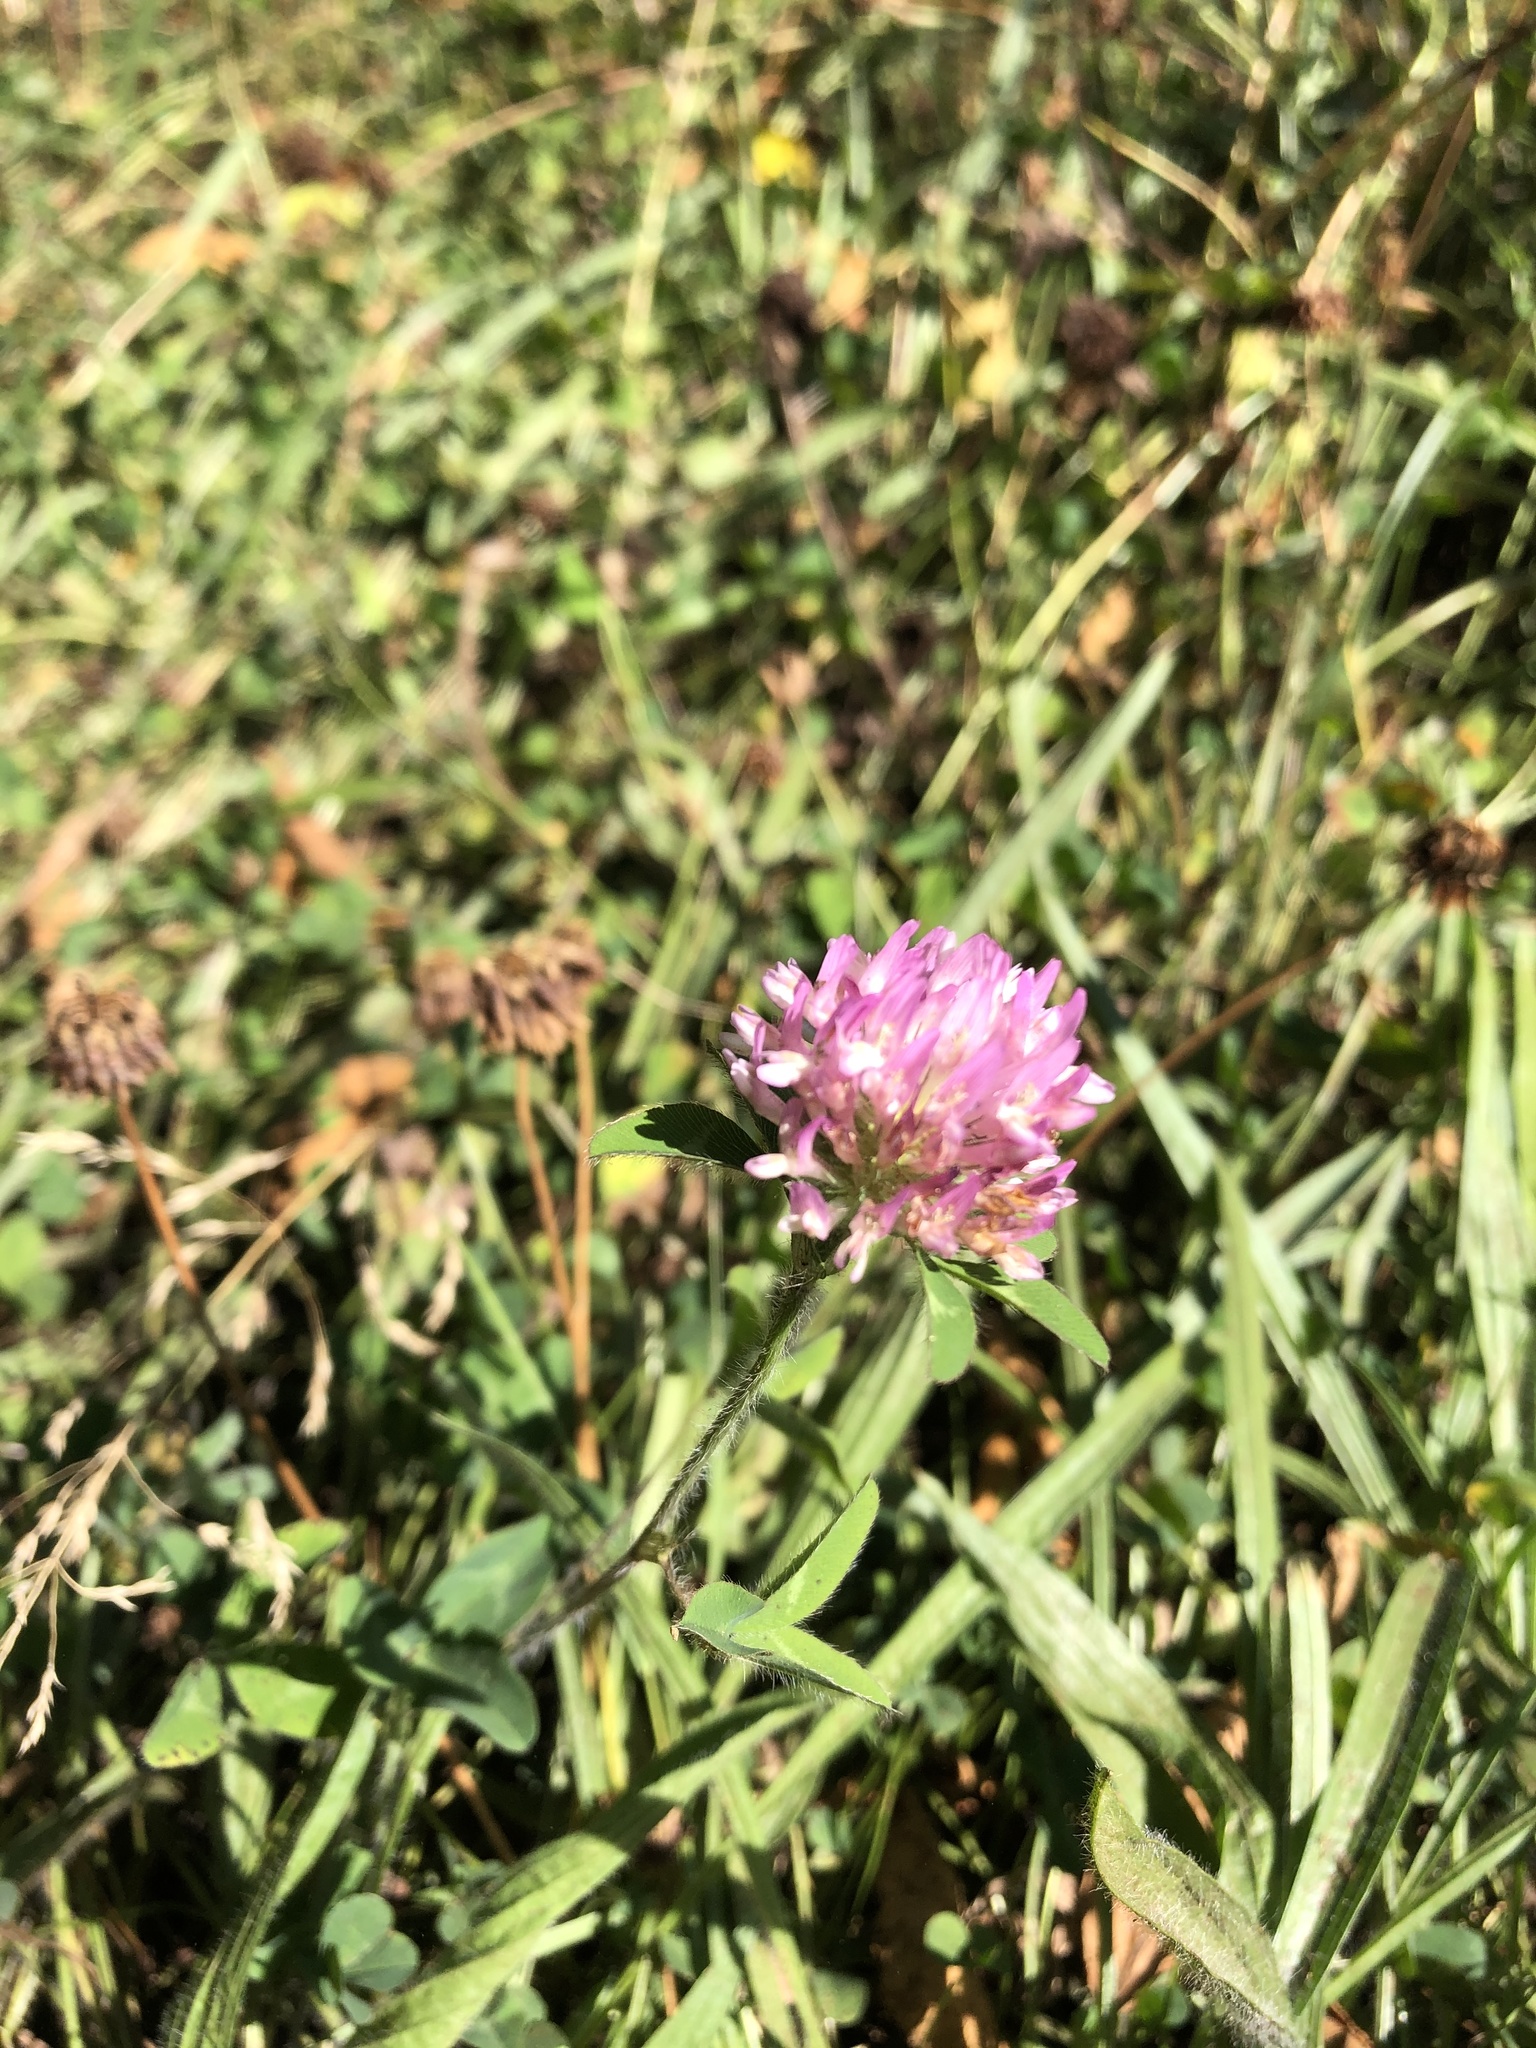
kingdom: Plantae
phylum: Tracheophyta
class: Magnoliopsida
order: Fabales
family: Fabaceae
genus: Trifolium
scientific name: Trifolium pratense
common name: Red clover
